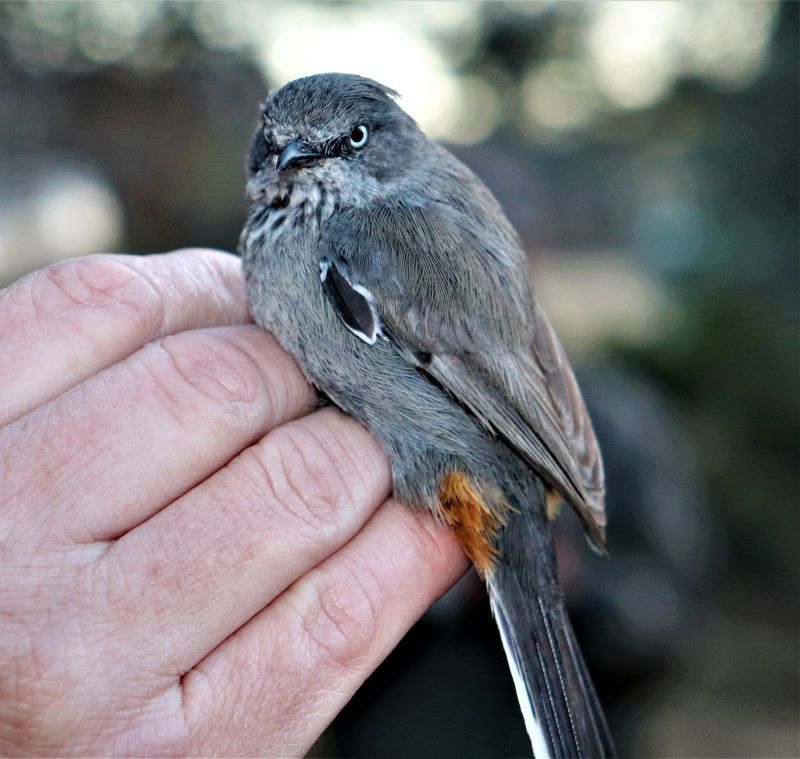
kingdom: Animalia
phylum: Chordata
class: Aves
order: Passeriformes
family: Sylviidae
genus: Curruca
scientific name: Curruca subcoerulea
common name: Chestnut-vented warbler
